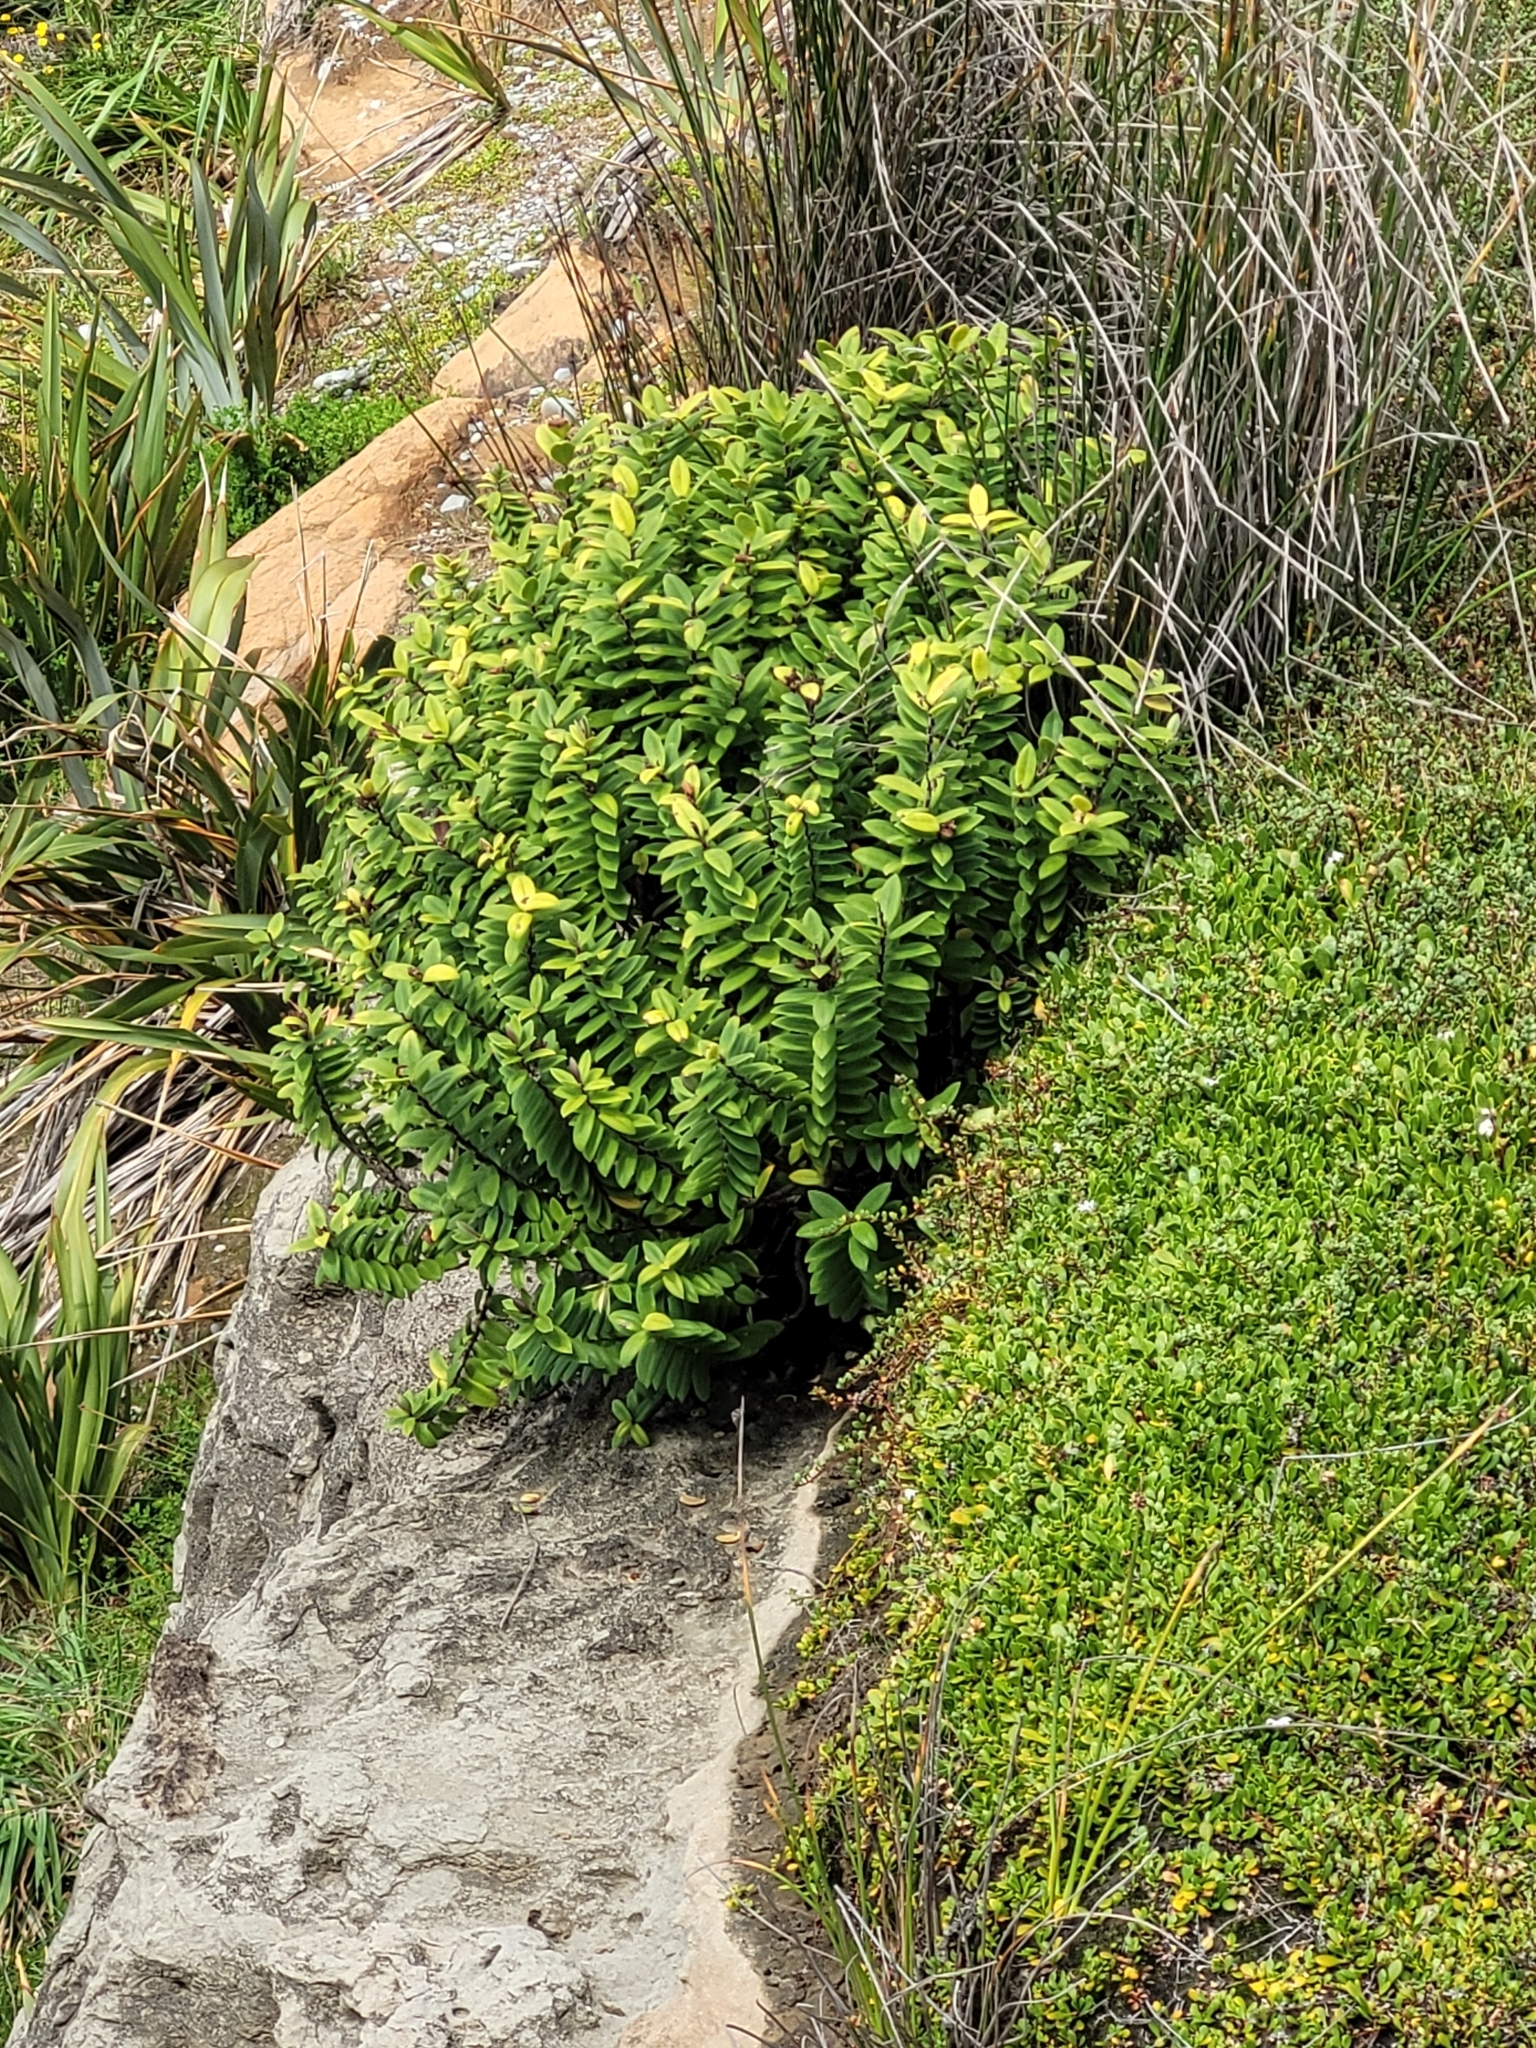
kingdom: Plantae
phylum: Tracheophyta
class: Magnoliopsida
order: Lamiales
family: Plantaginaceae
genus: Veronica
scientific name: Veronica elliptica
